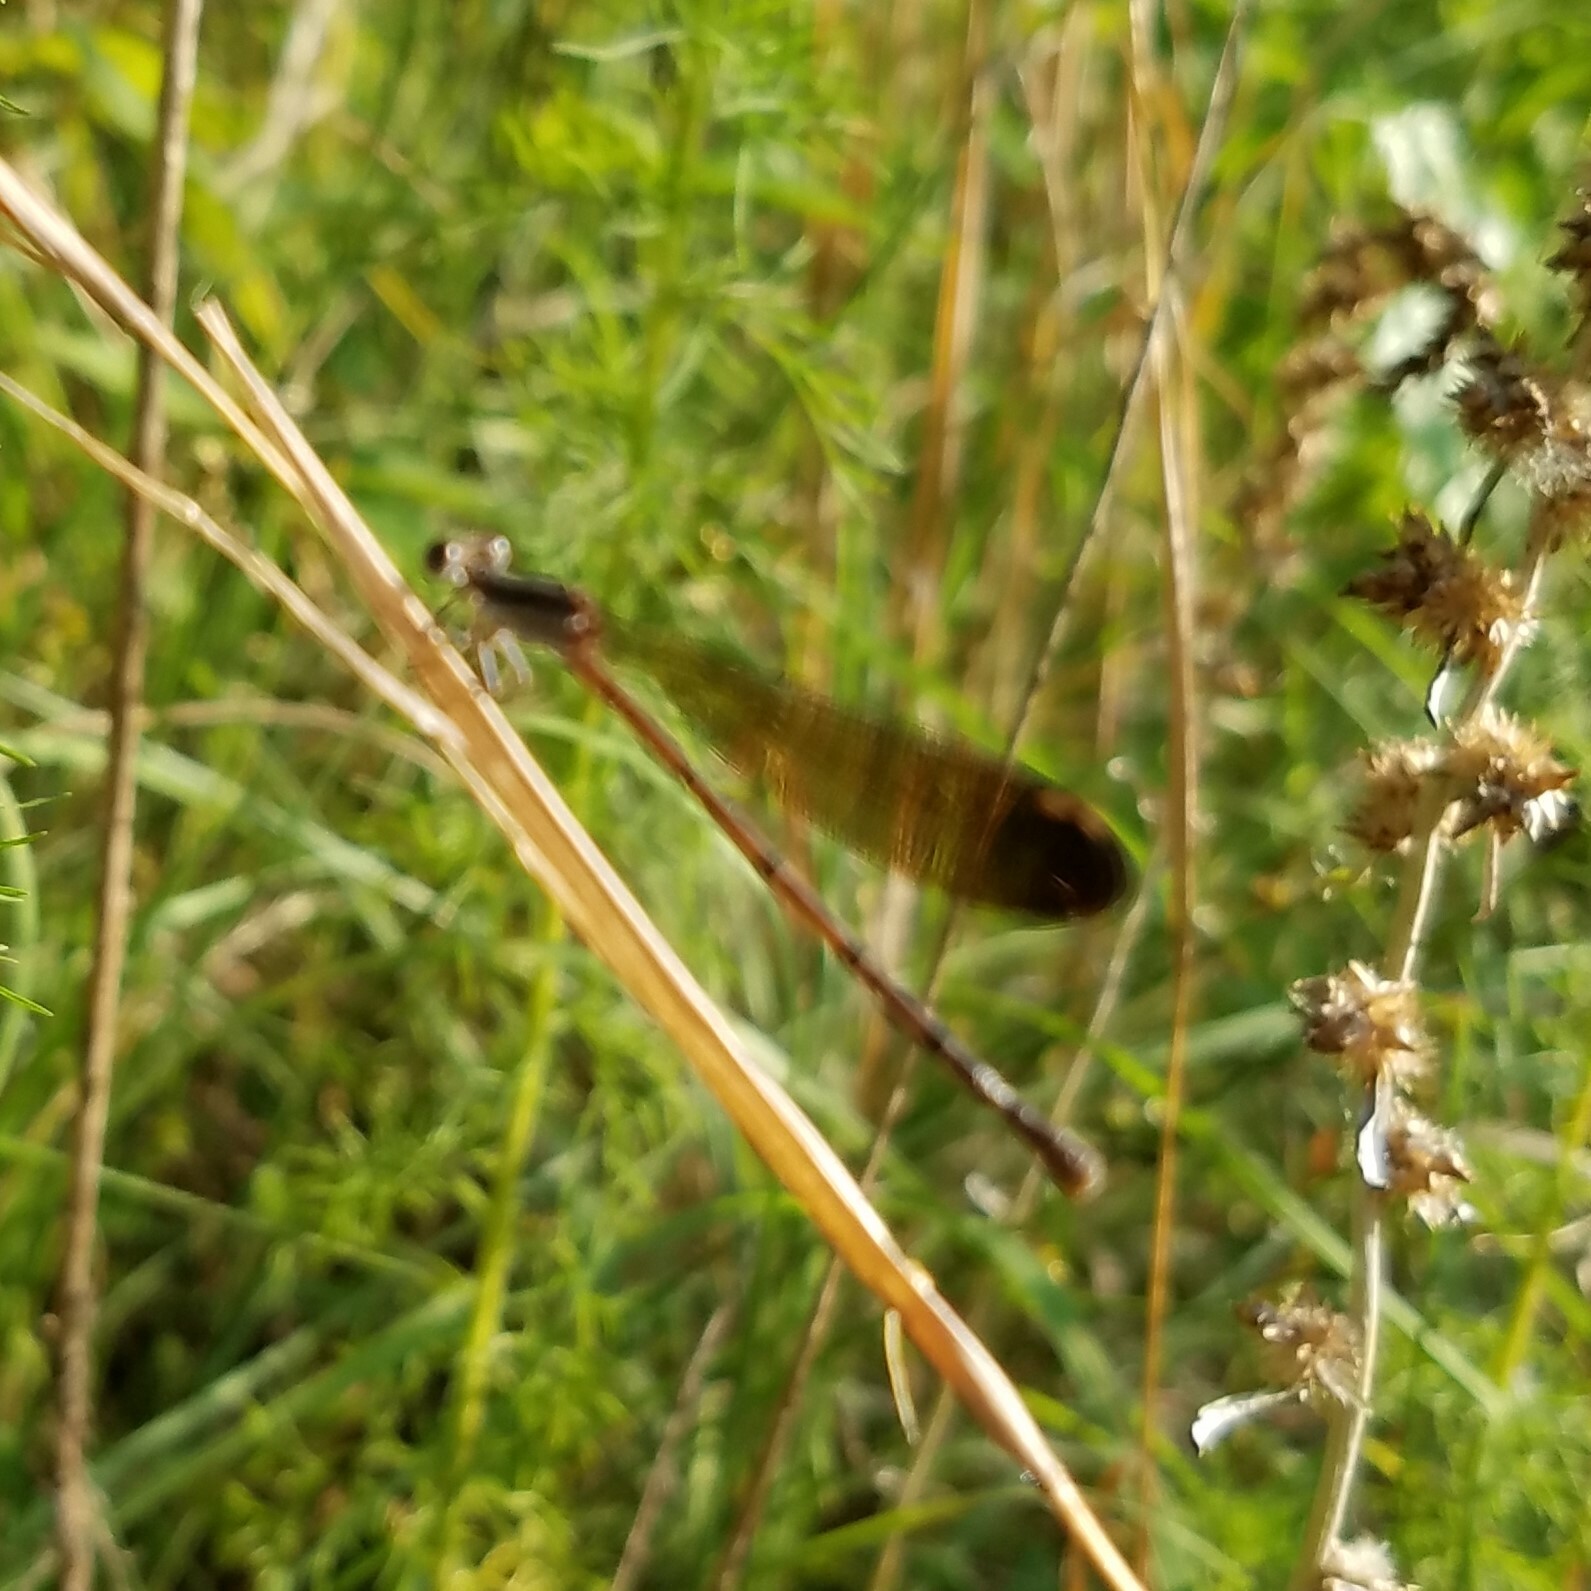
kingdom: Animalia
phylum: Arthropoda
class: Insecta
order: Odonata
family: Coenagrionidae
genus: Argia
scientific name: Argia fumipennis
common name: Variable dancer
